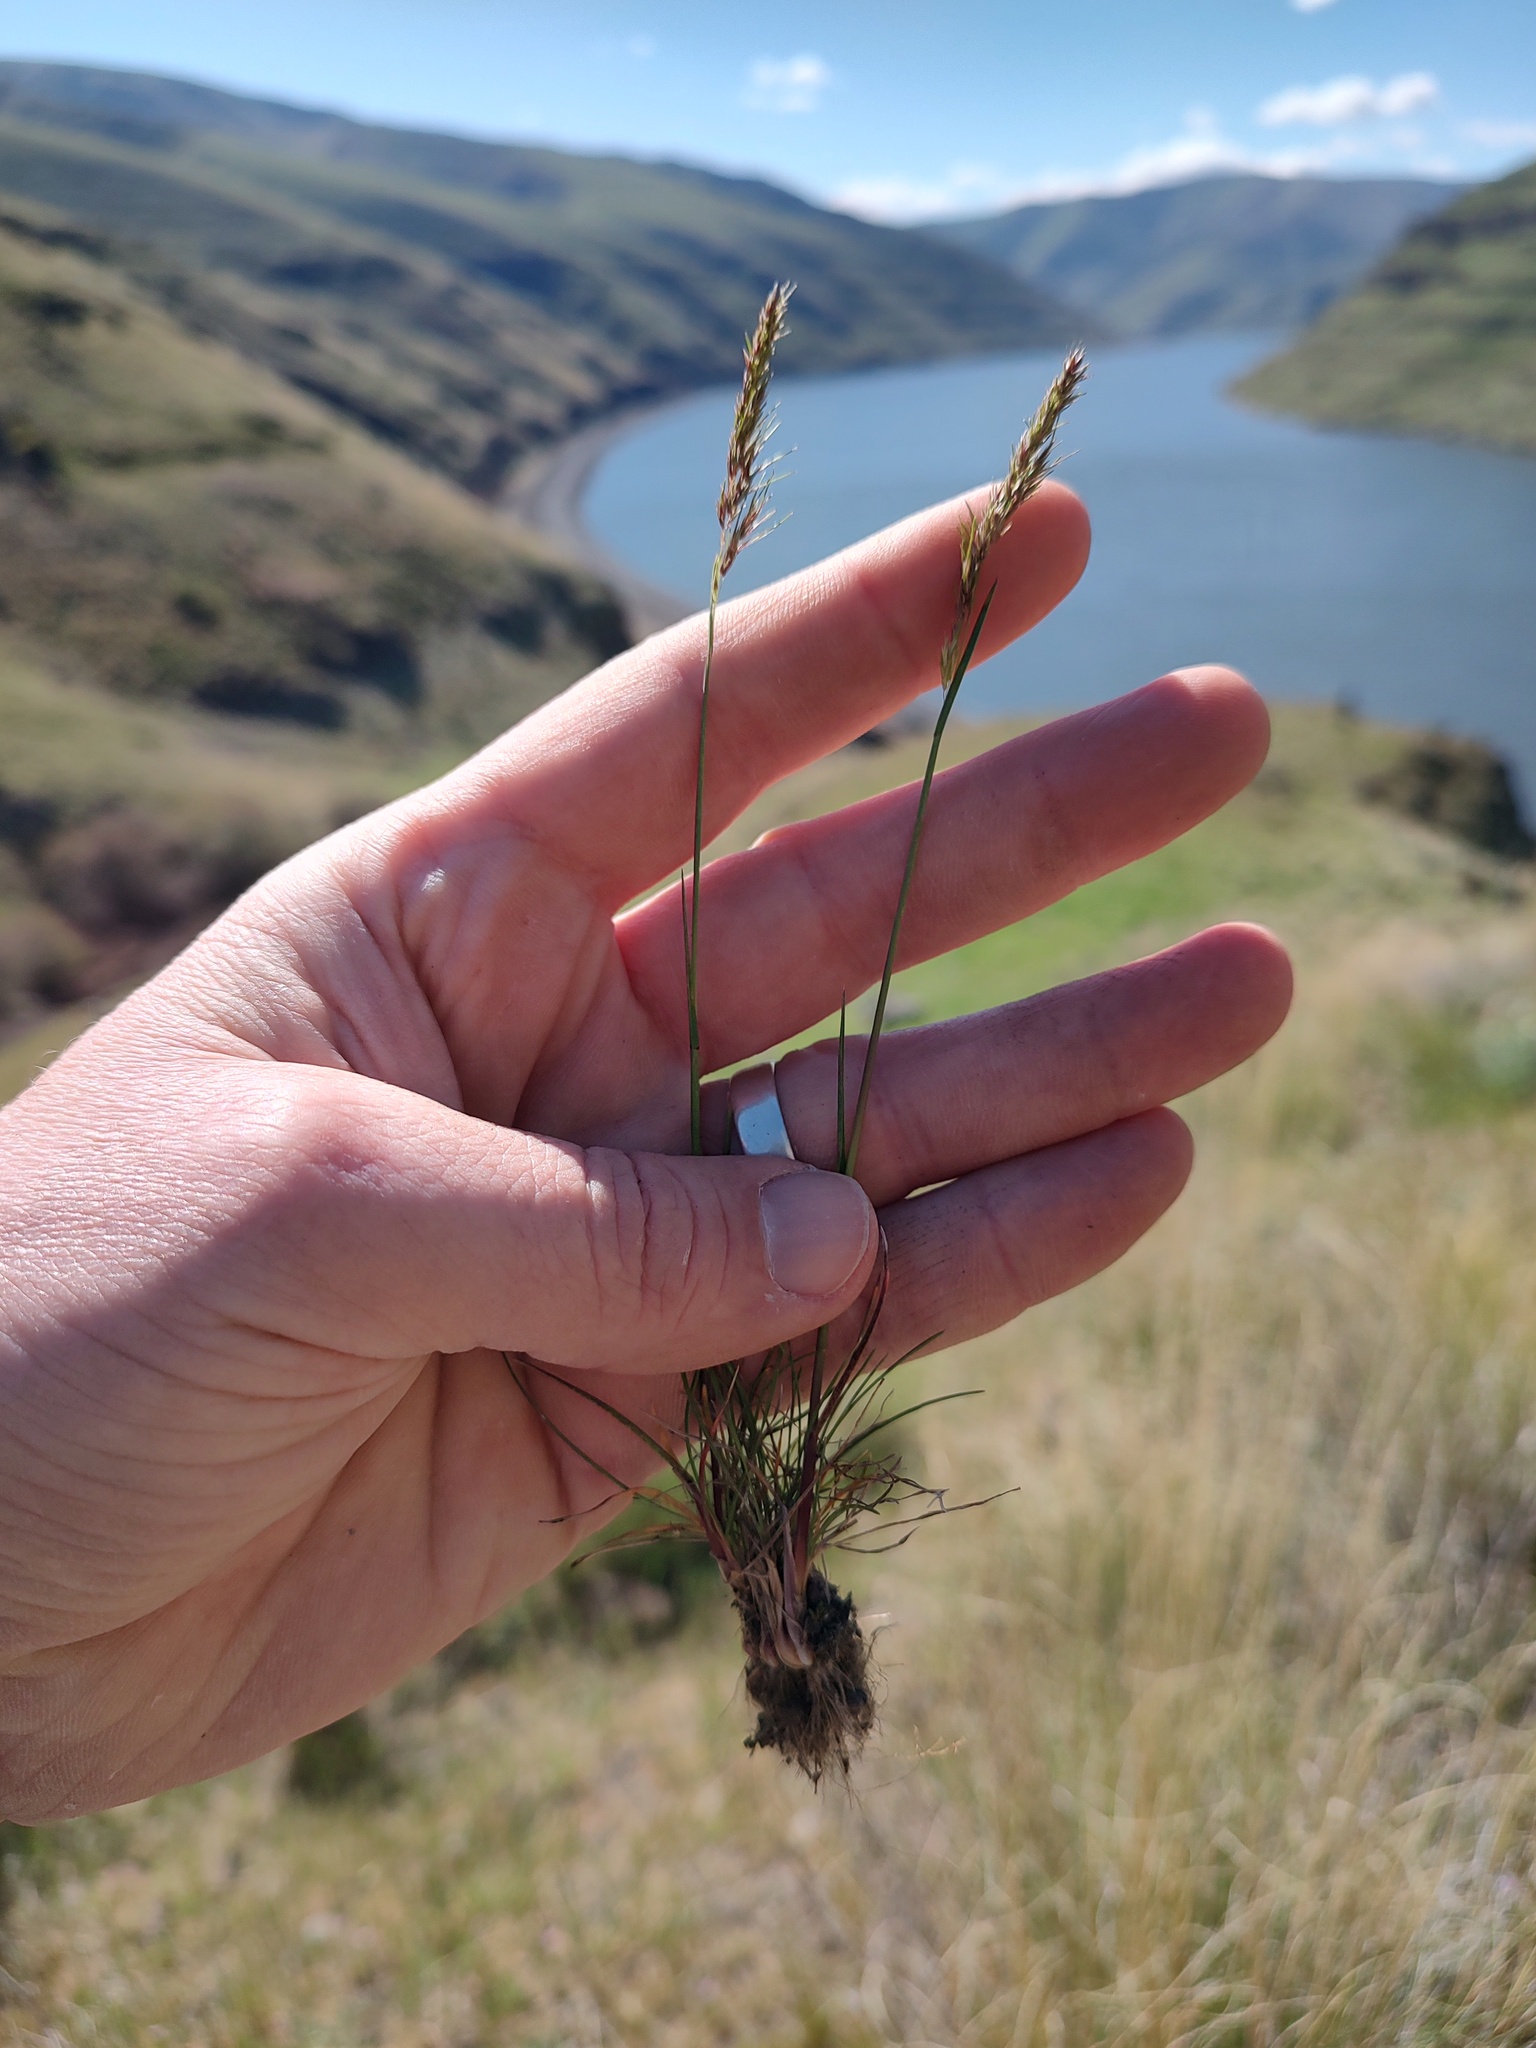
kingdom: Plantae
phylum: Tracheophyta
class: Liliopsida
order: Poales
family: Poaceae
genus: Poa
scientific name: Poa bulbosa
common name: Bulbous bluegrass
